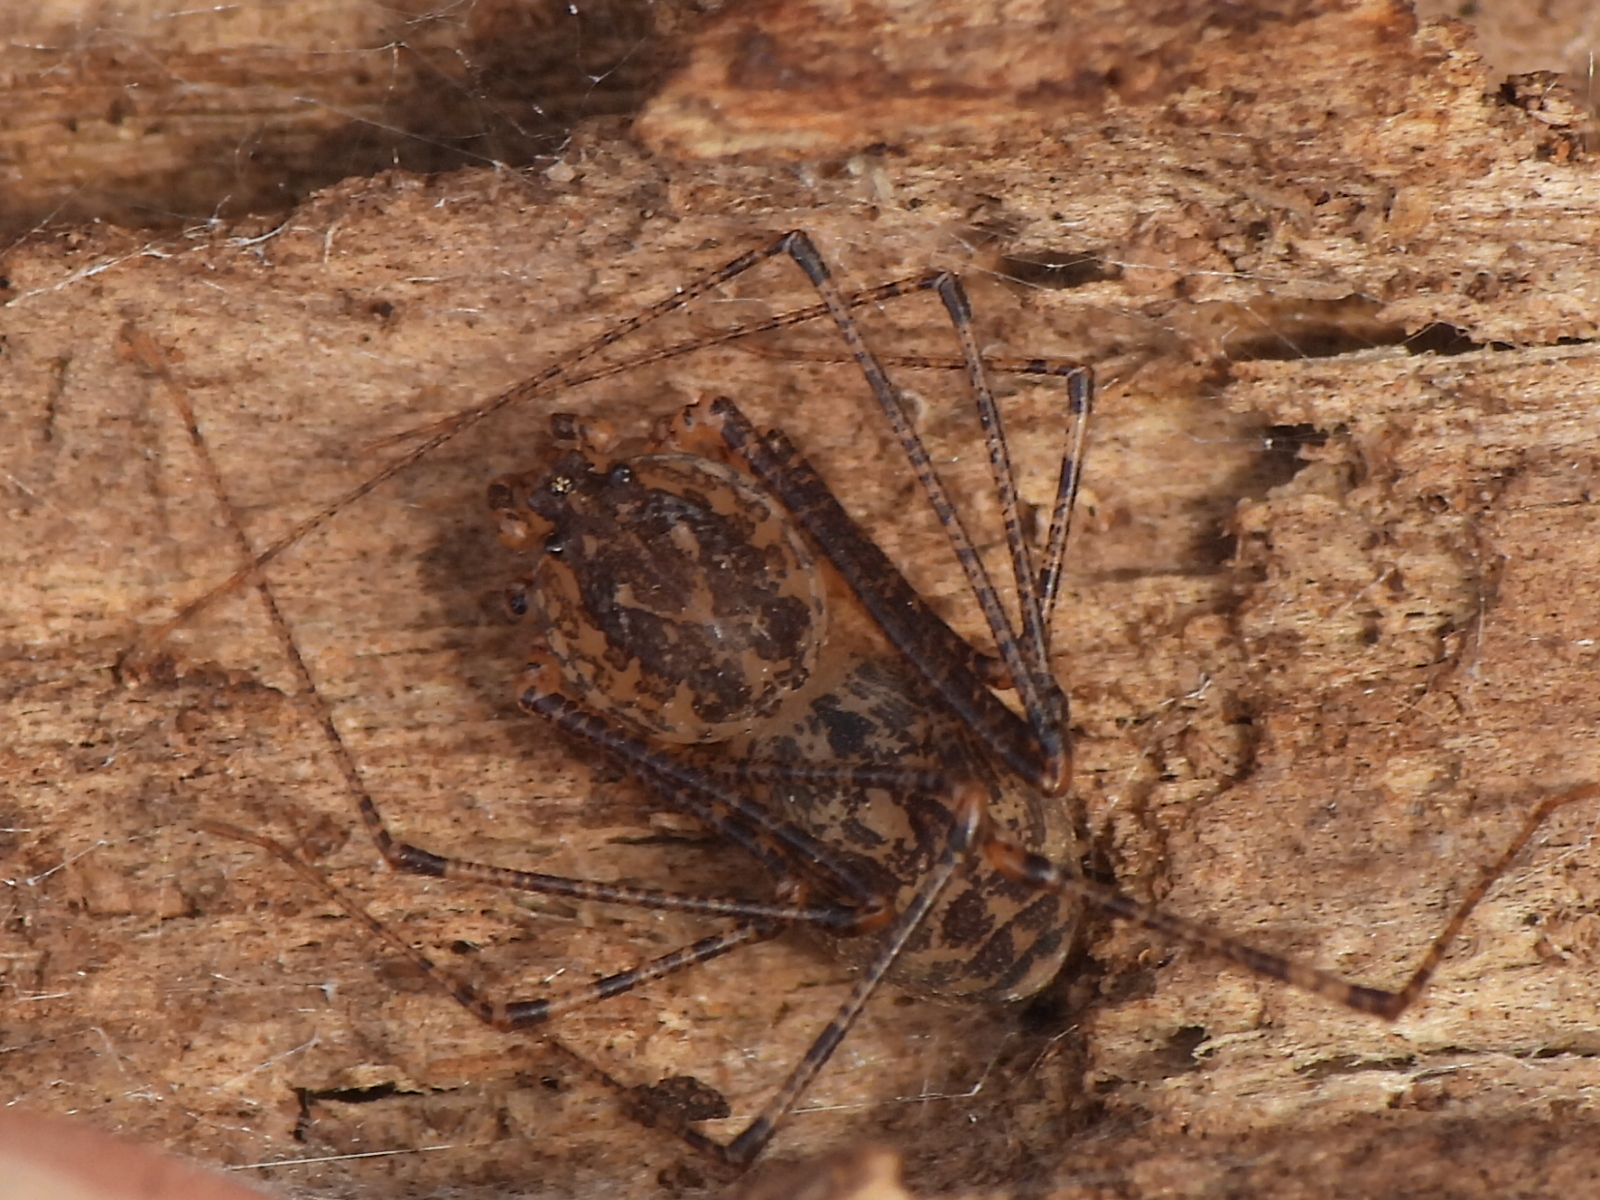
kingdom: Animalia
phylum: Arthropoda
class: Arachnida
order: Araneae
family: Scytodidae
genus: Scytodes
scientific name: Scytodes atlacoya
